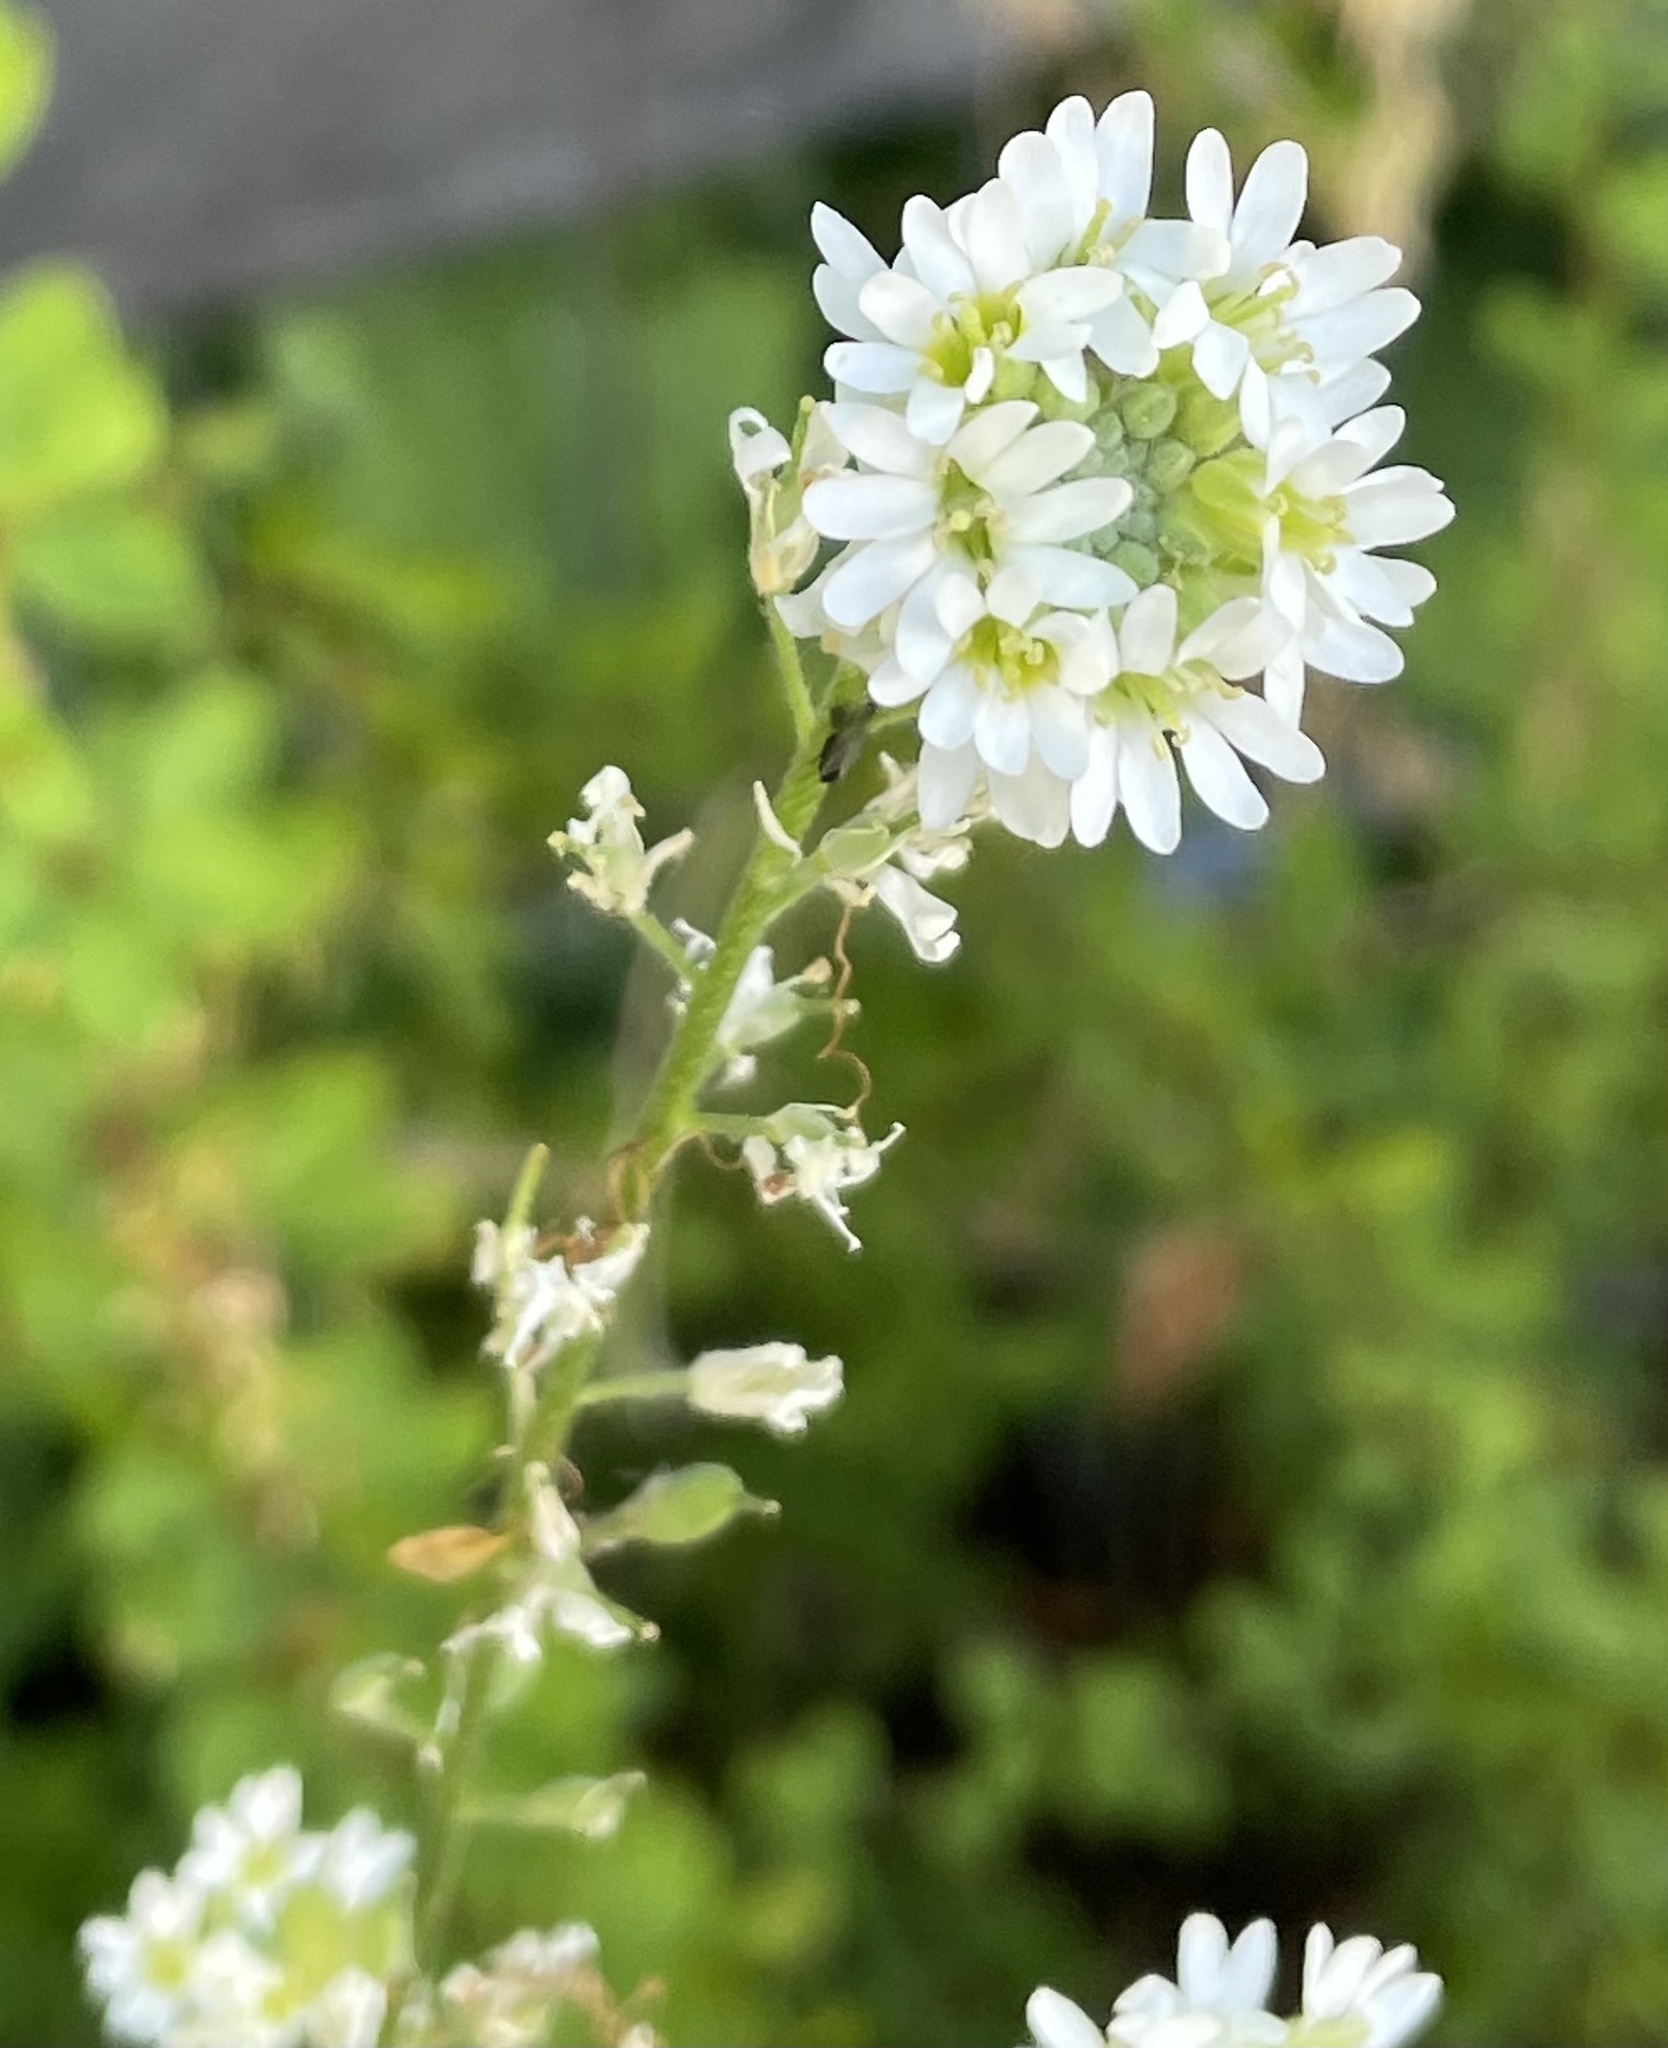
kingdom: Plantae
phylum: Tracheophyta
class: Magnoliopsida
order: Brassicales
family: Brassicaceae
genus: Berteroa
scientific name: Berteroa incana
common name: Hoary alison
